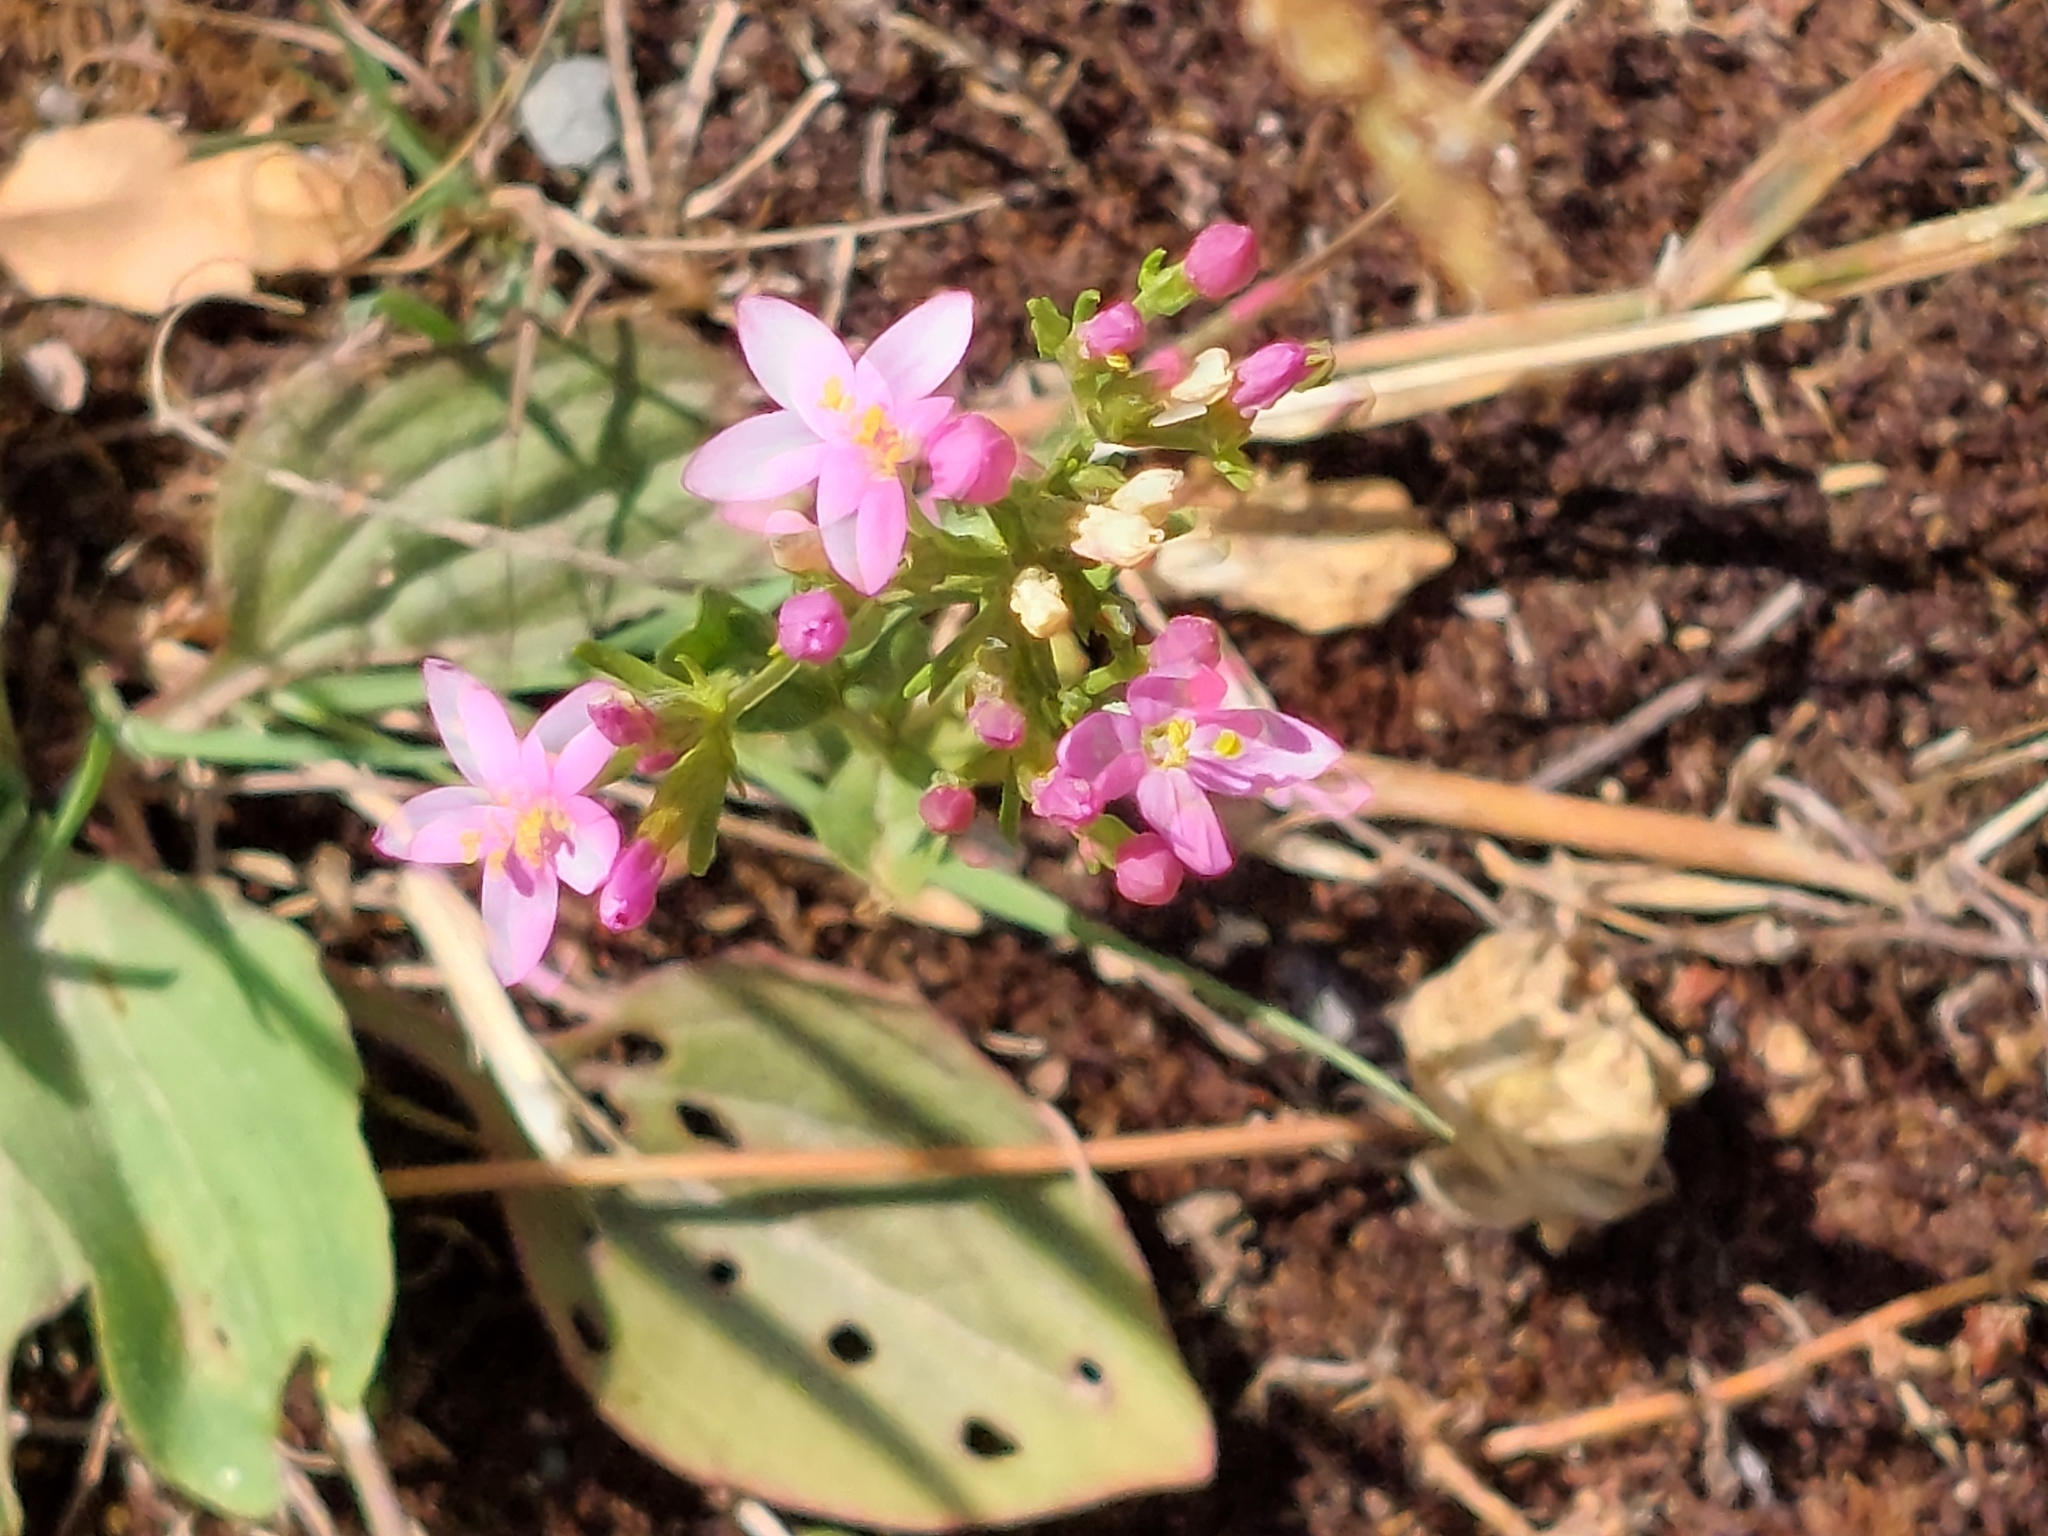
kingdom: Plantae
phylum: Tracheophyta
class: Magnoliopsida
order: Gentianales
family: Gentianaceae
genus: Centaurium
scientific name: Centaurium erythraea
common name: Common centaury
